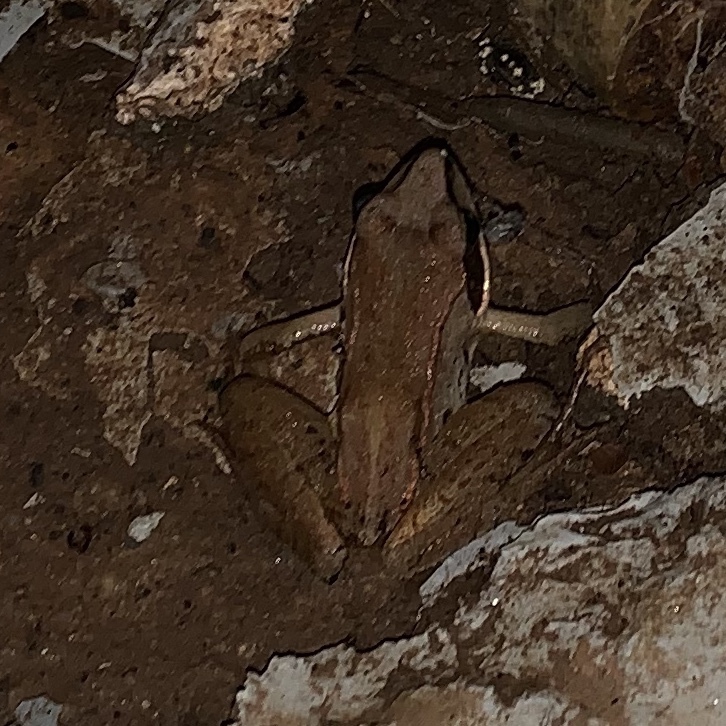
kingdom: Animalia
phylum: Chordata
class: Amphibia
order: Anura
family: Ranidae
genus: Lithobates
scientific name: Lithobates sylvaticus
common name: Wood frog
